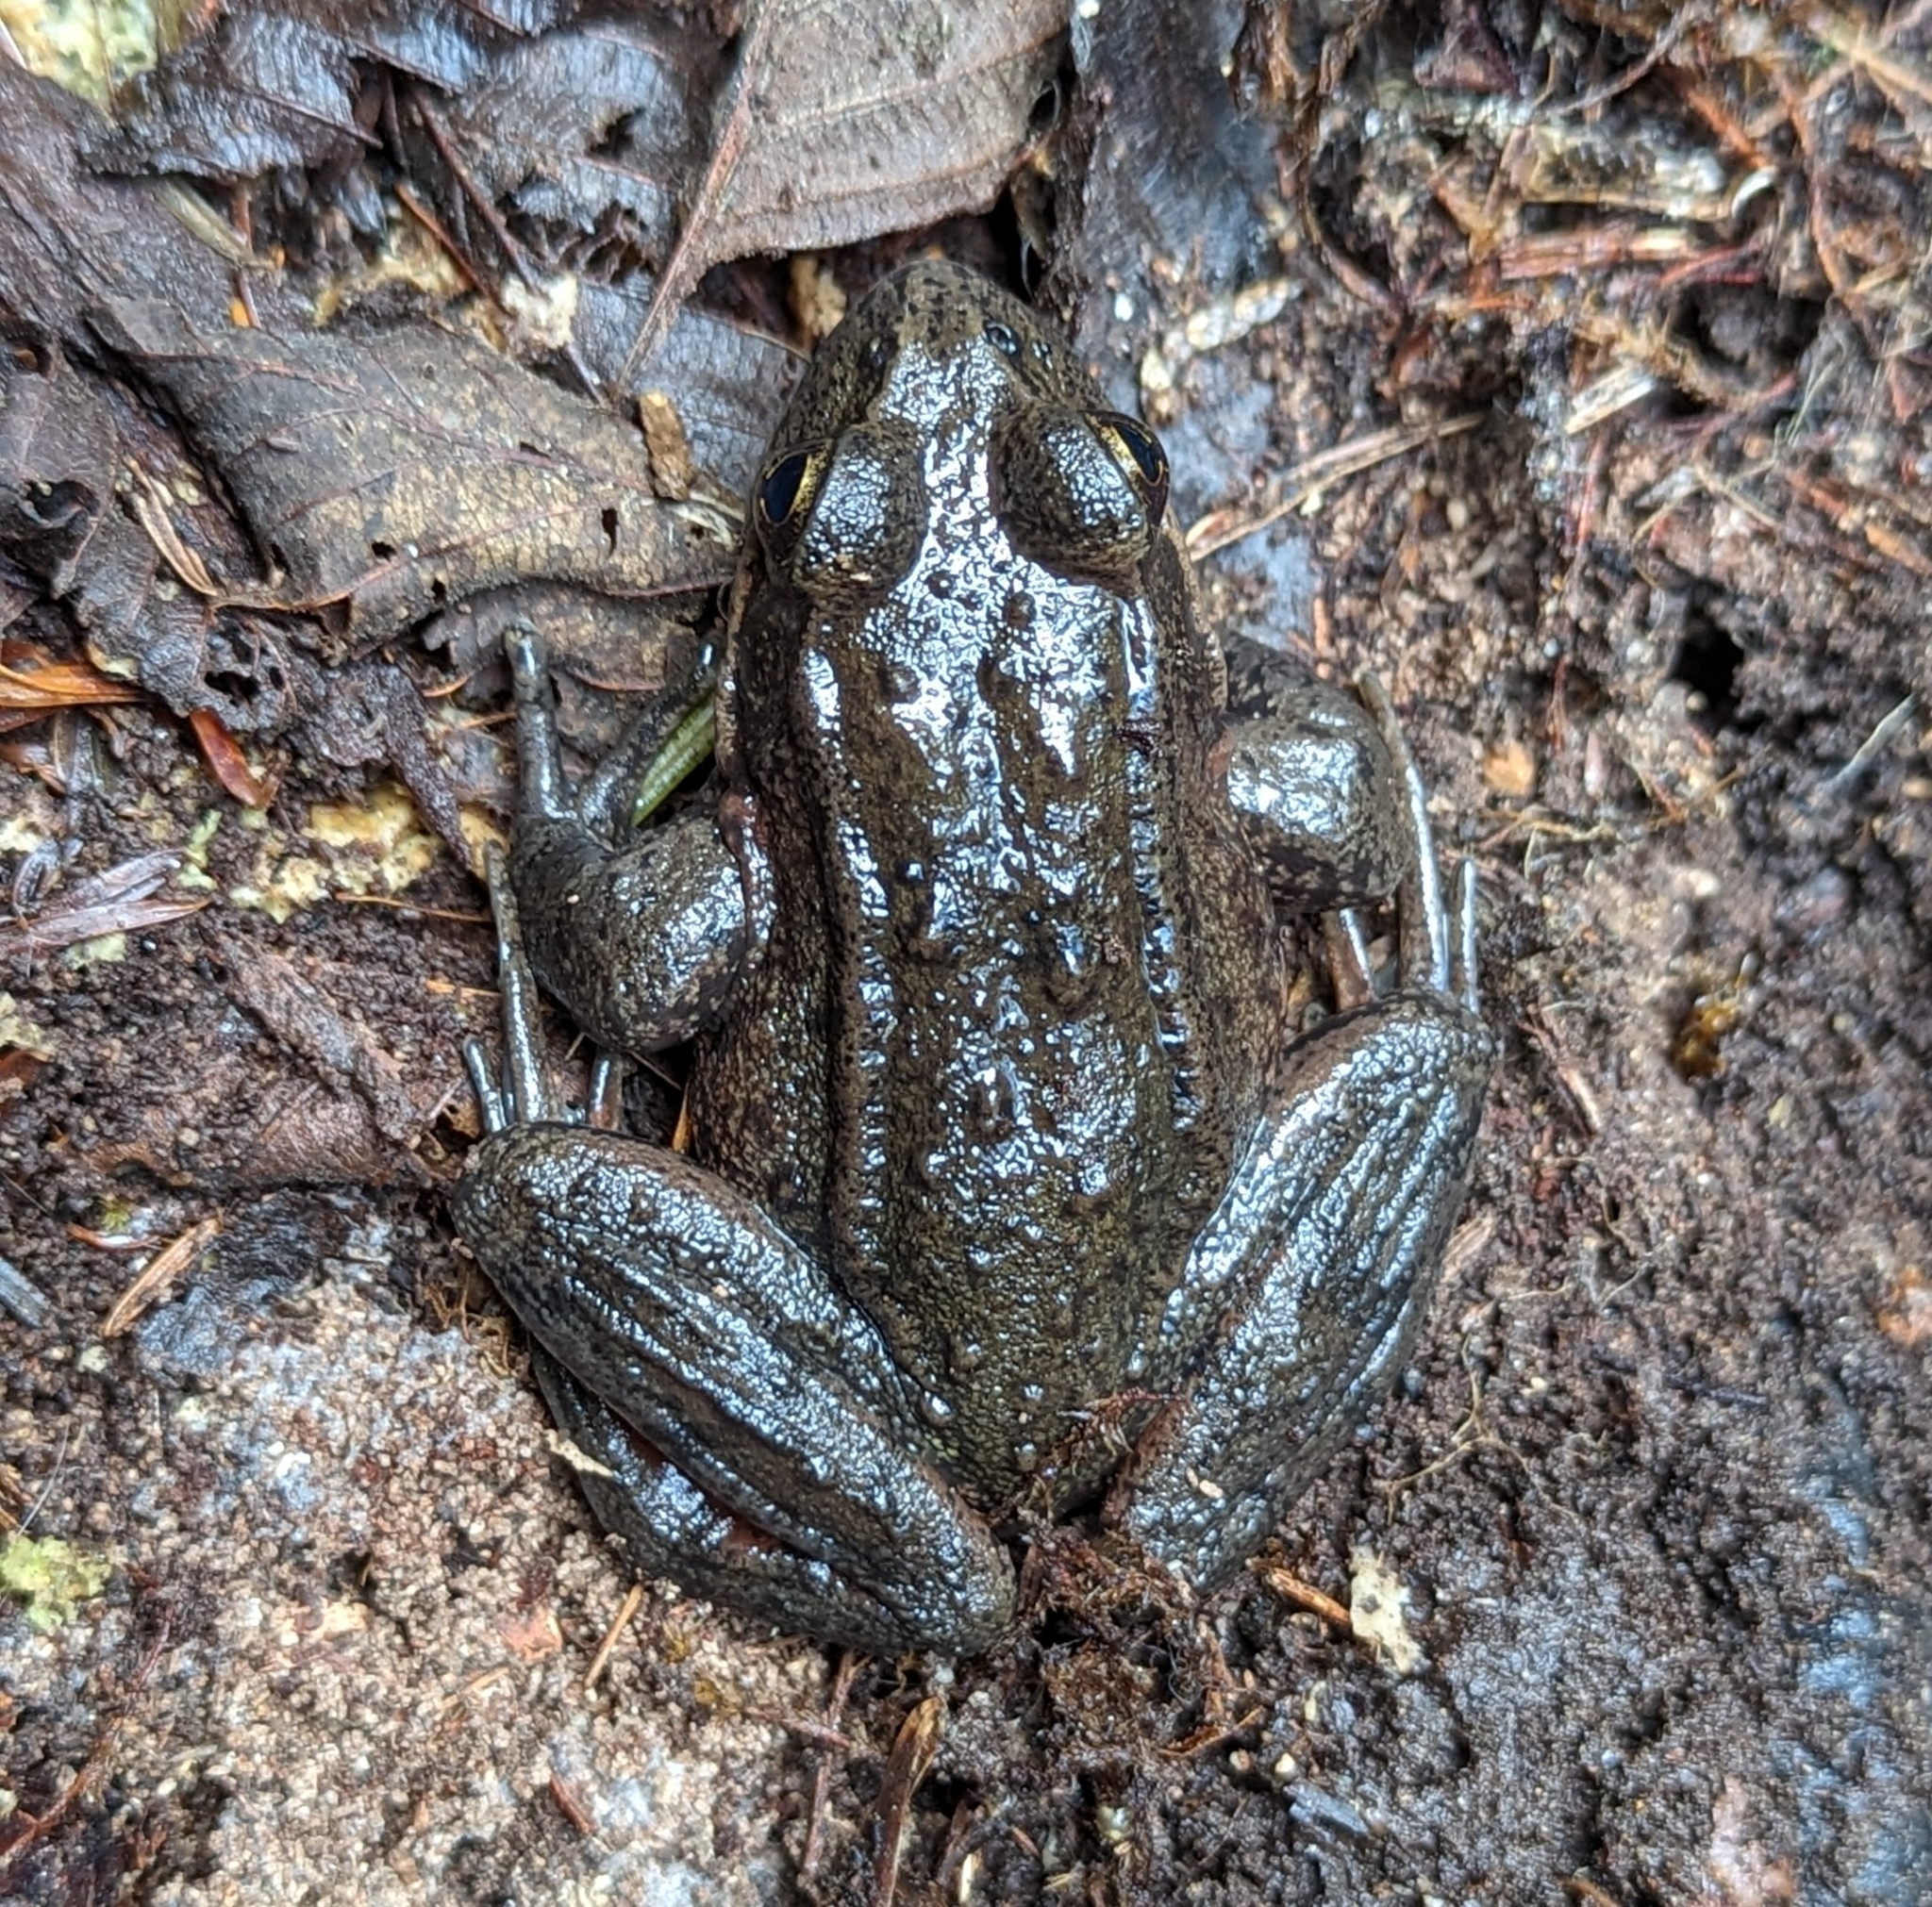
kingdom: Animalia
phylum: Chordata
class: Amphibia
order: Anura
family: Ranidae
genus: Rana
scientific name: Rana aurora
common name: Red-legged frog
